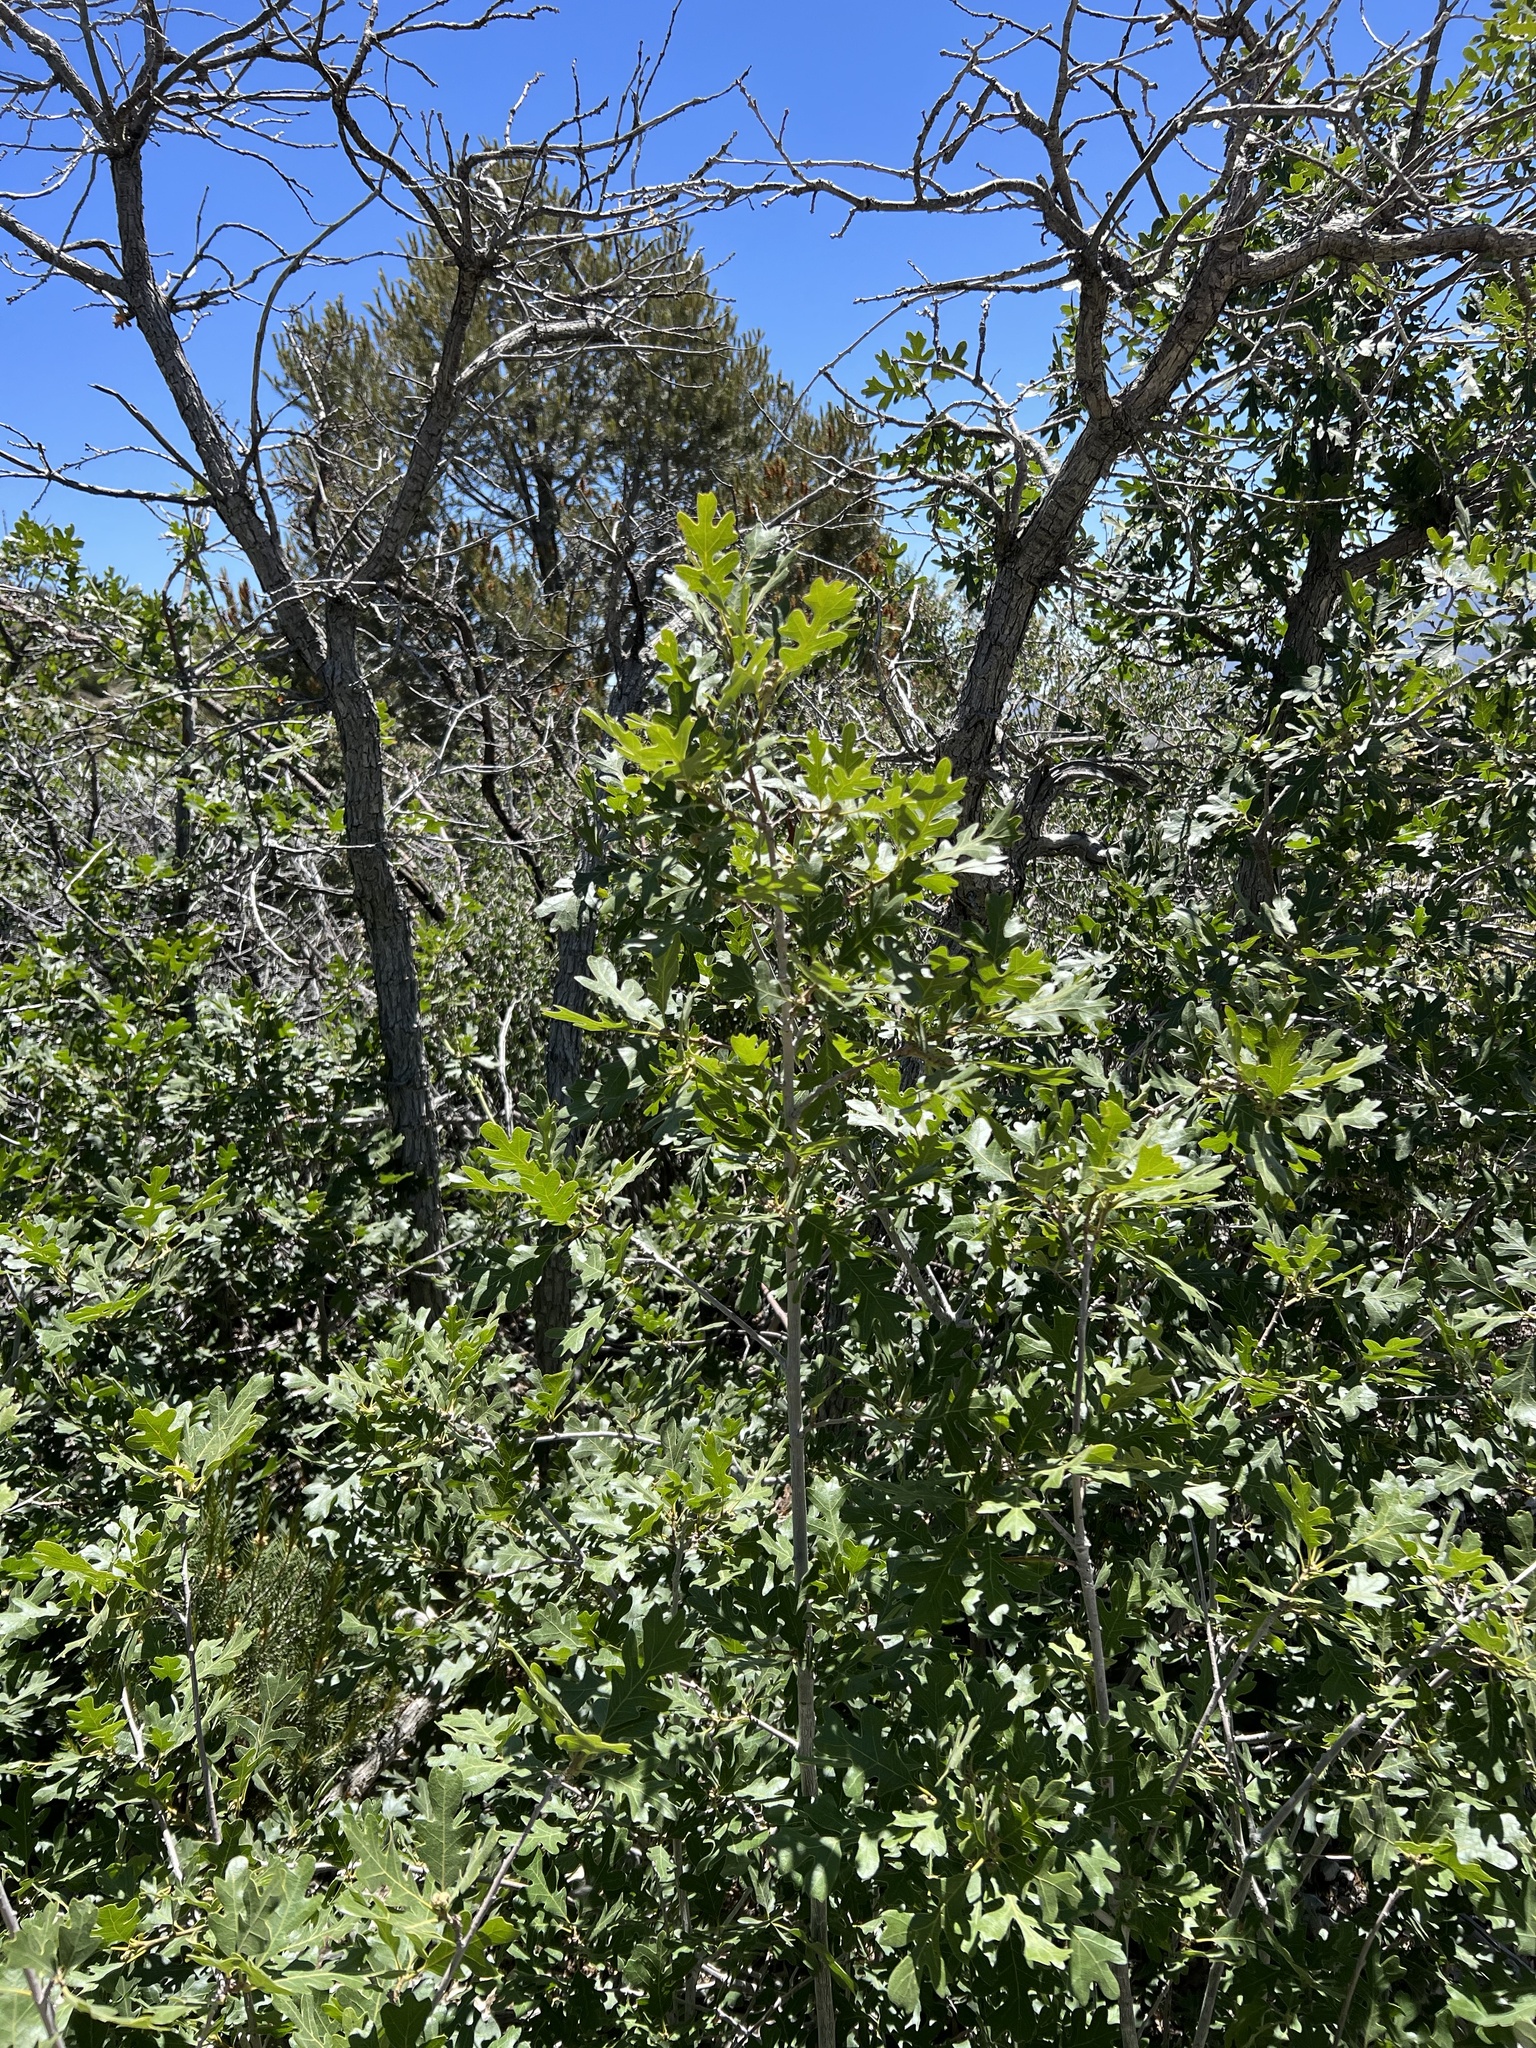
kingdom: Plantae
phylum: Tracheophyta
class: Magnoliopsida
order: Fagales
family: Fagaceae
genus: Quercus
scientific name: Quercus gambelii
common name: Gambel oak
